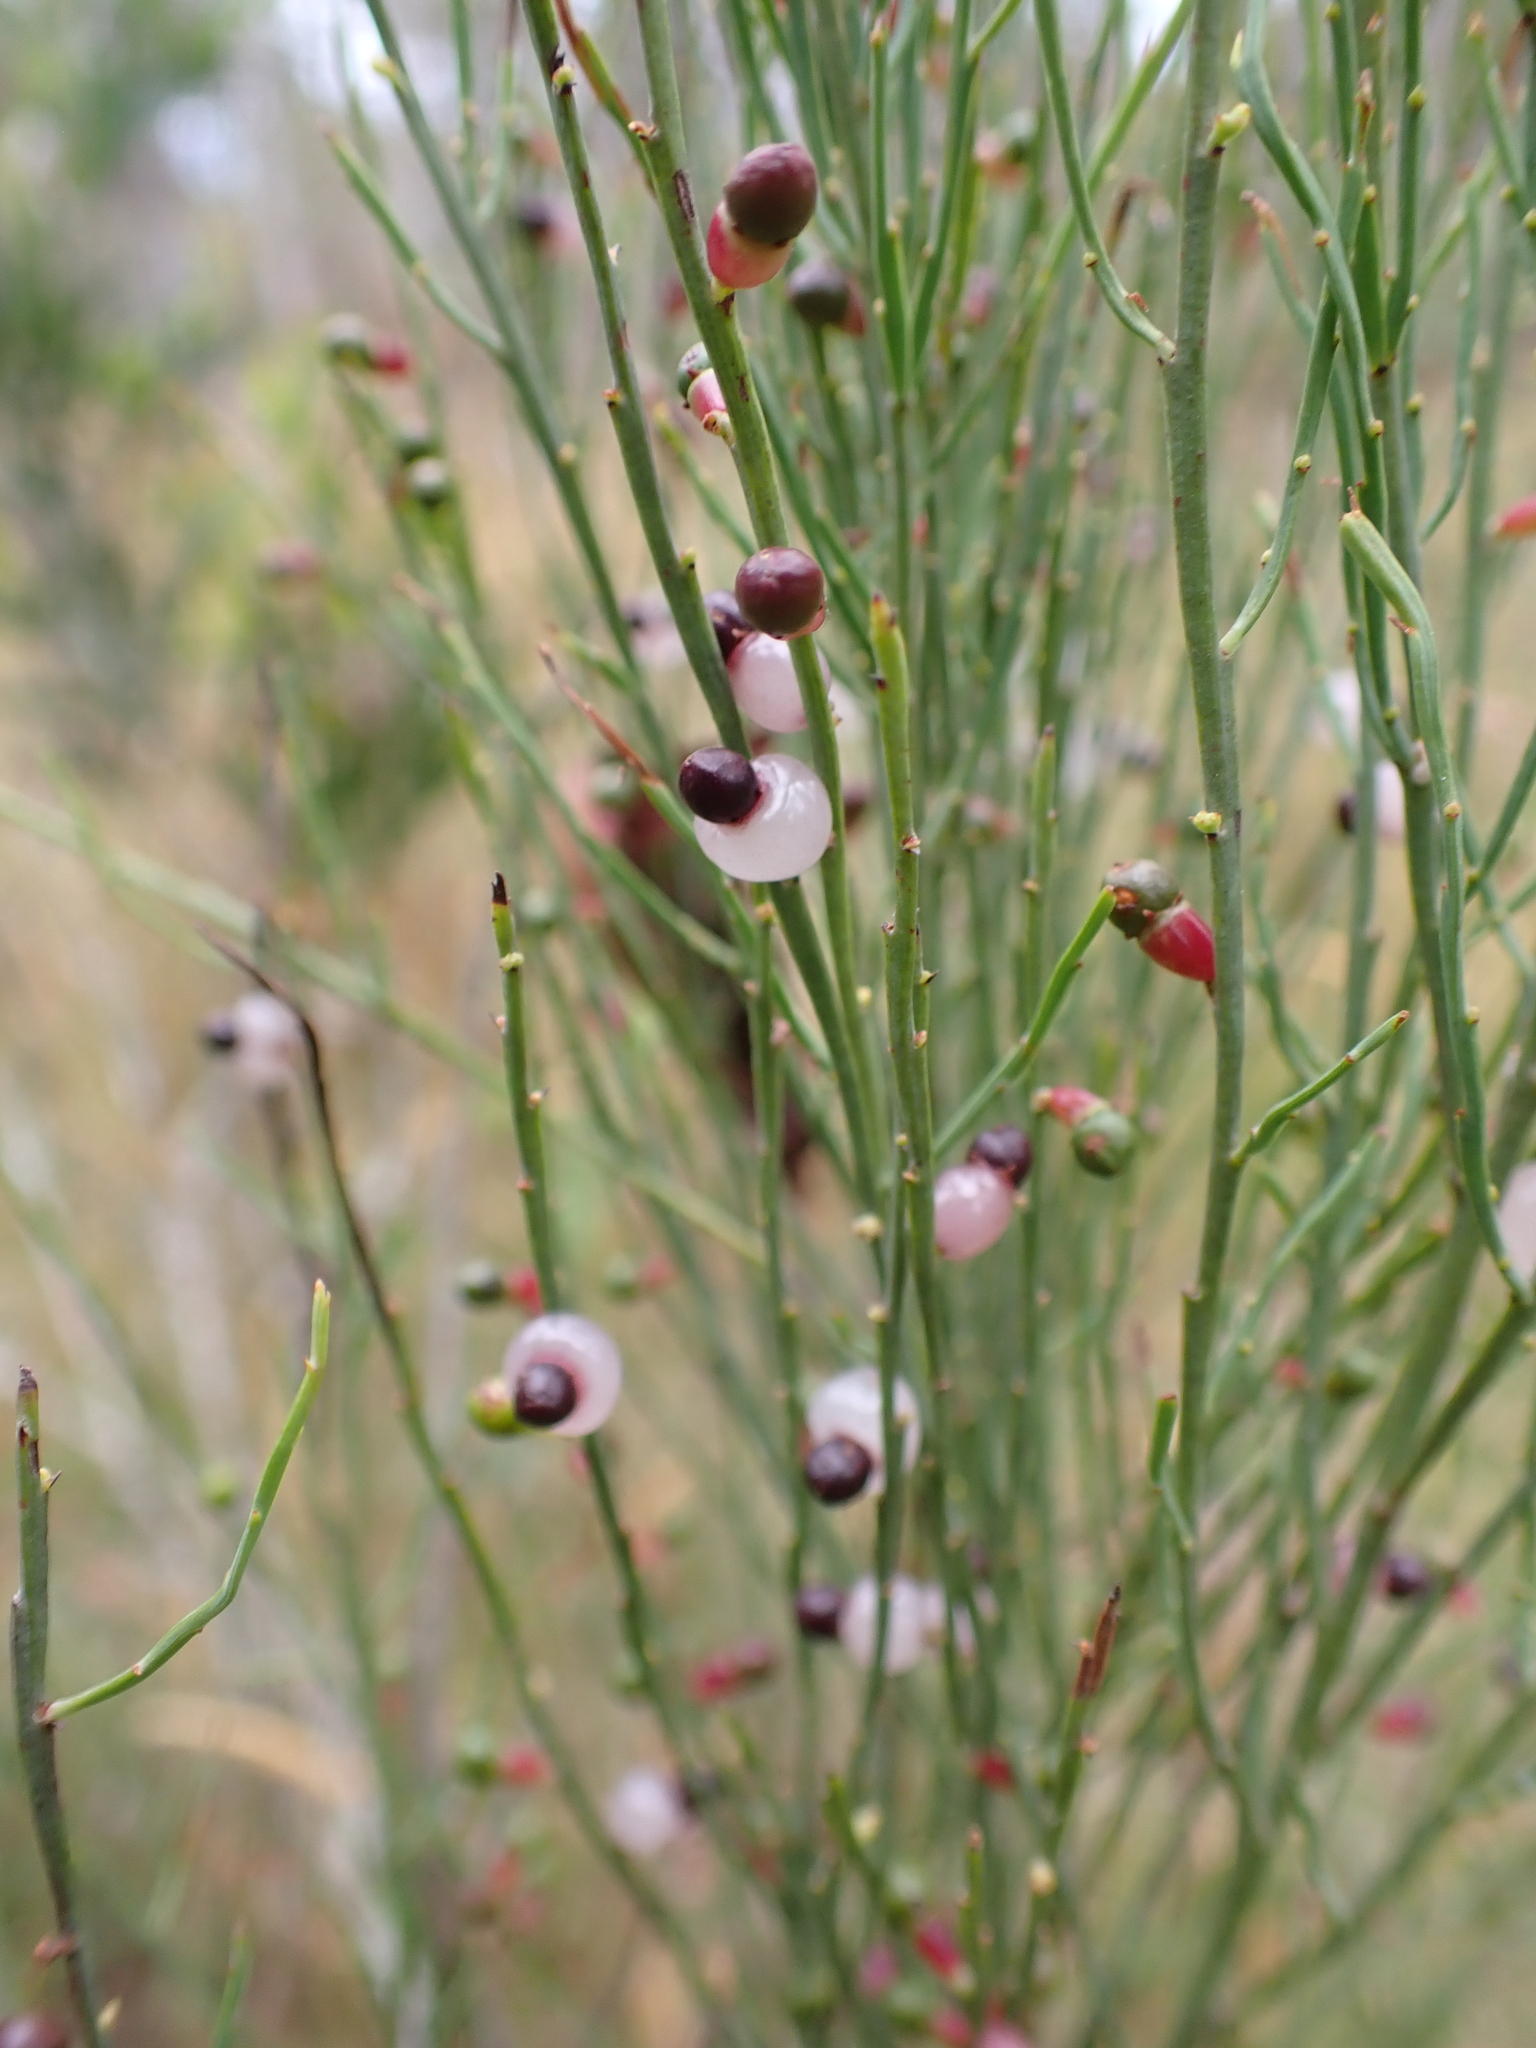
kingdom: Plantae
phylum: Tracheophyta
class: Magnoliopsida
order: Santalales
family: Santalaceae
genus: Exocarpos
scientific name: Exocarpos strictus
